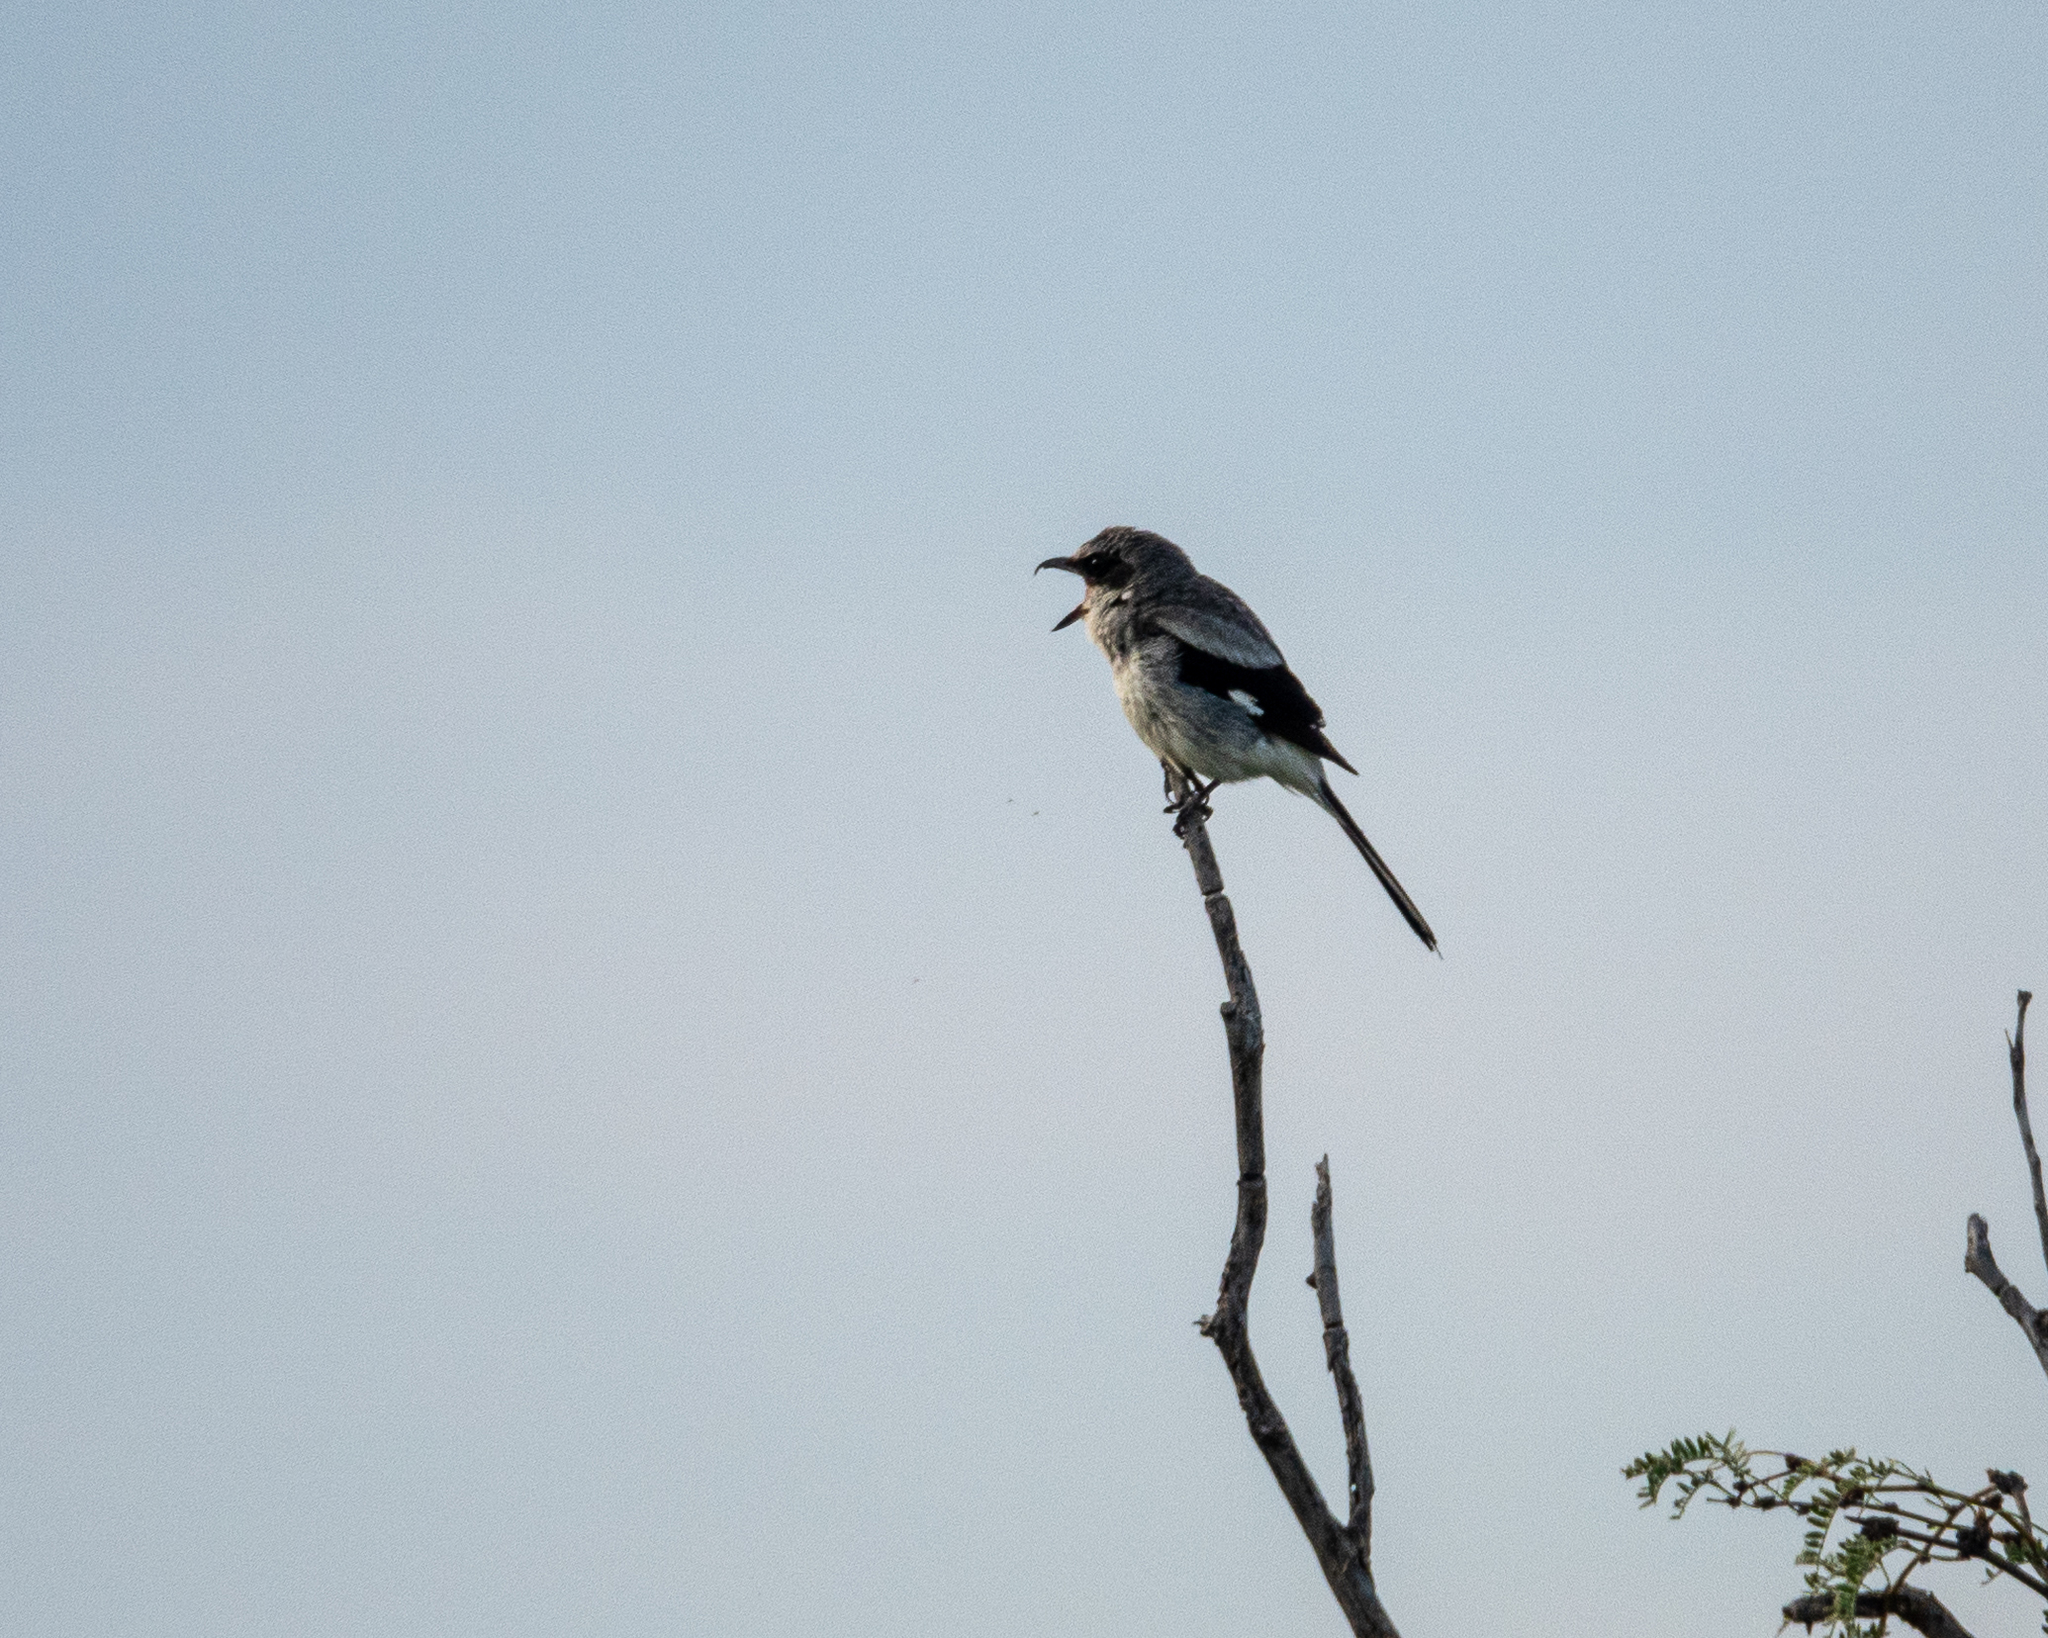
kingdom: Animalia
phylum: Chordata
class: Aves
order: Passeriformes
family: Laniidae
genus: Lanius
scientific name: Lanius ludovicianus
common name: Loggerhead shrike
